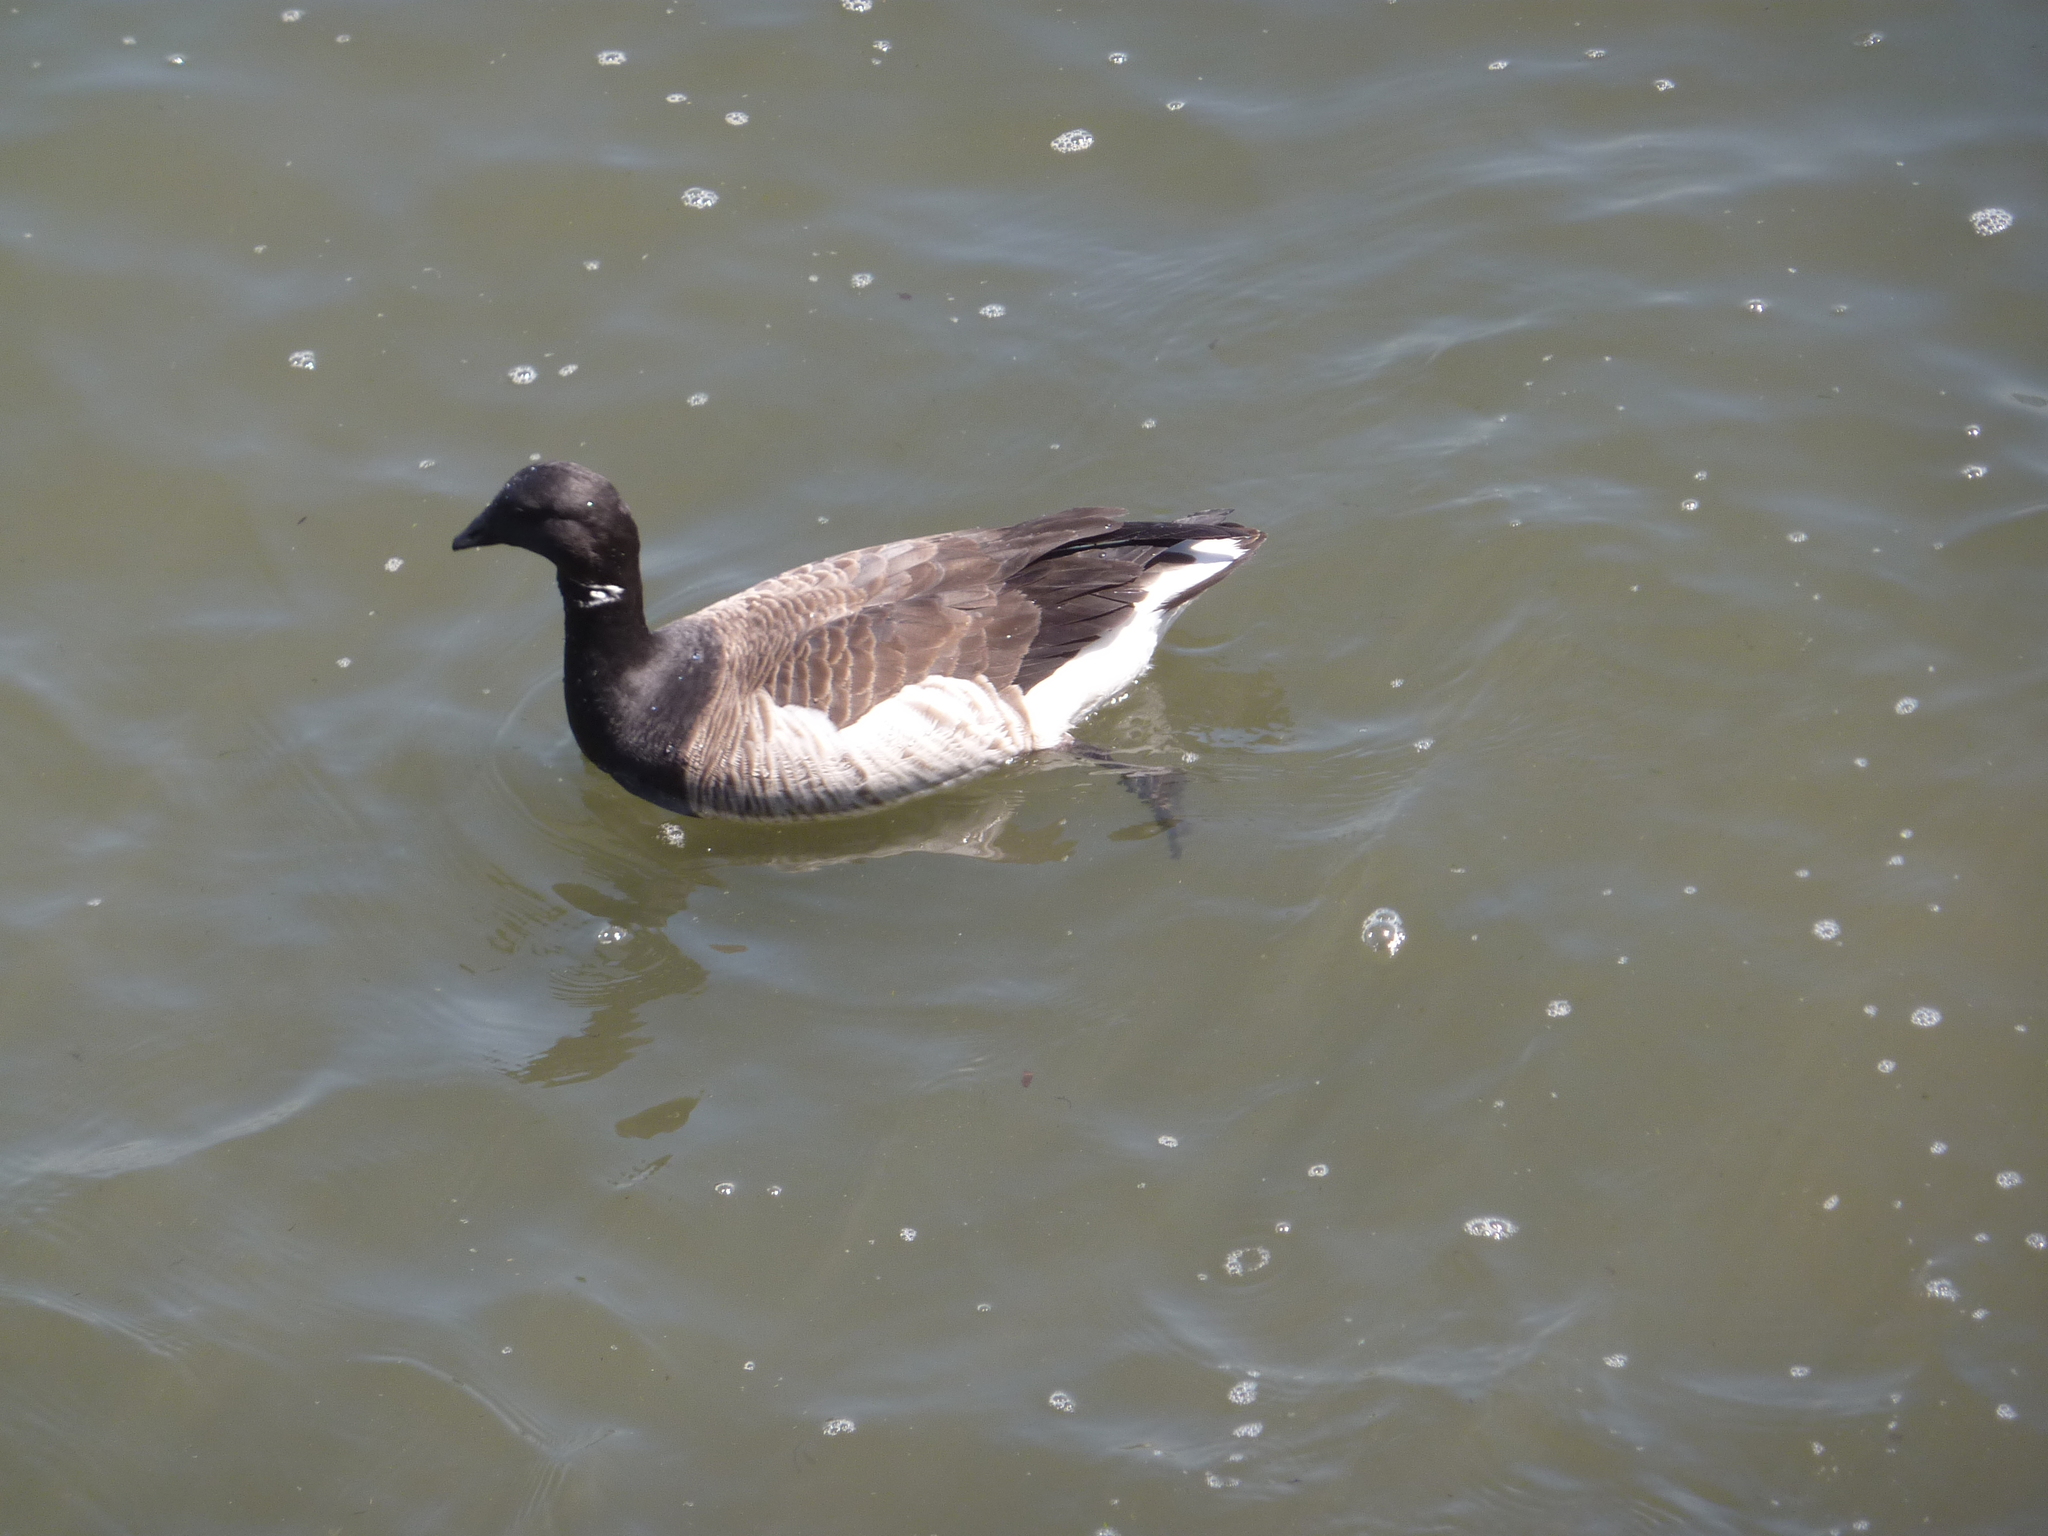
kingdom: Animalia
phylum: Chordata
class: Aves
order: Anseriformes
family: Anatidae
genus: Branta
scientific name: Branta bernicla
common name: Brant goose
